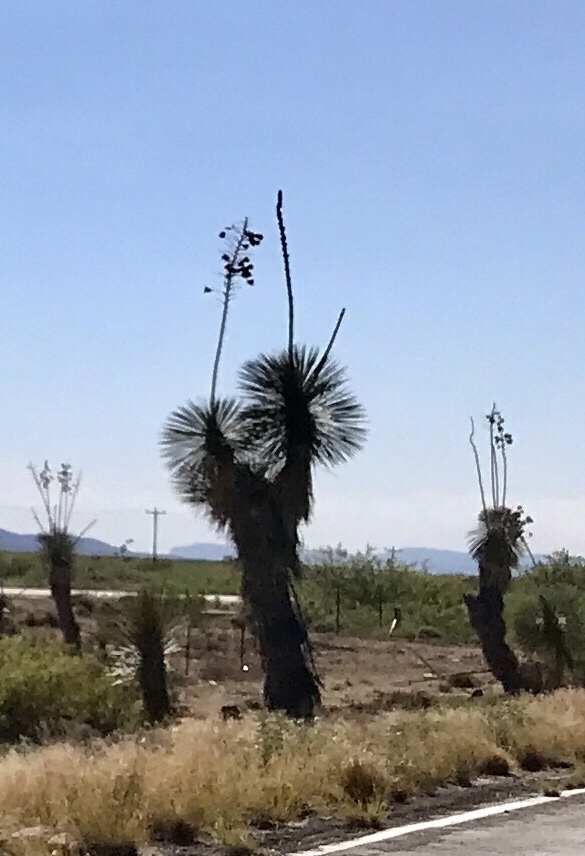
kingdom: Plantae
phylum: Tracheophyta
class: Liliopsida
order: Asparagales
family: Asparagaceae
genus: Yucca
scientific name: Yucca elata
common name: Palmella
